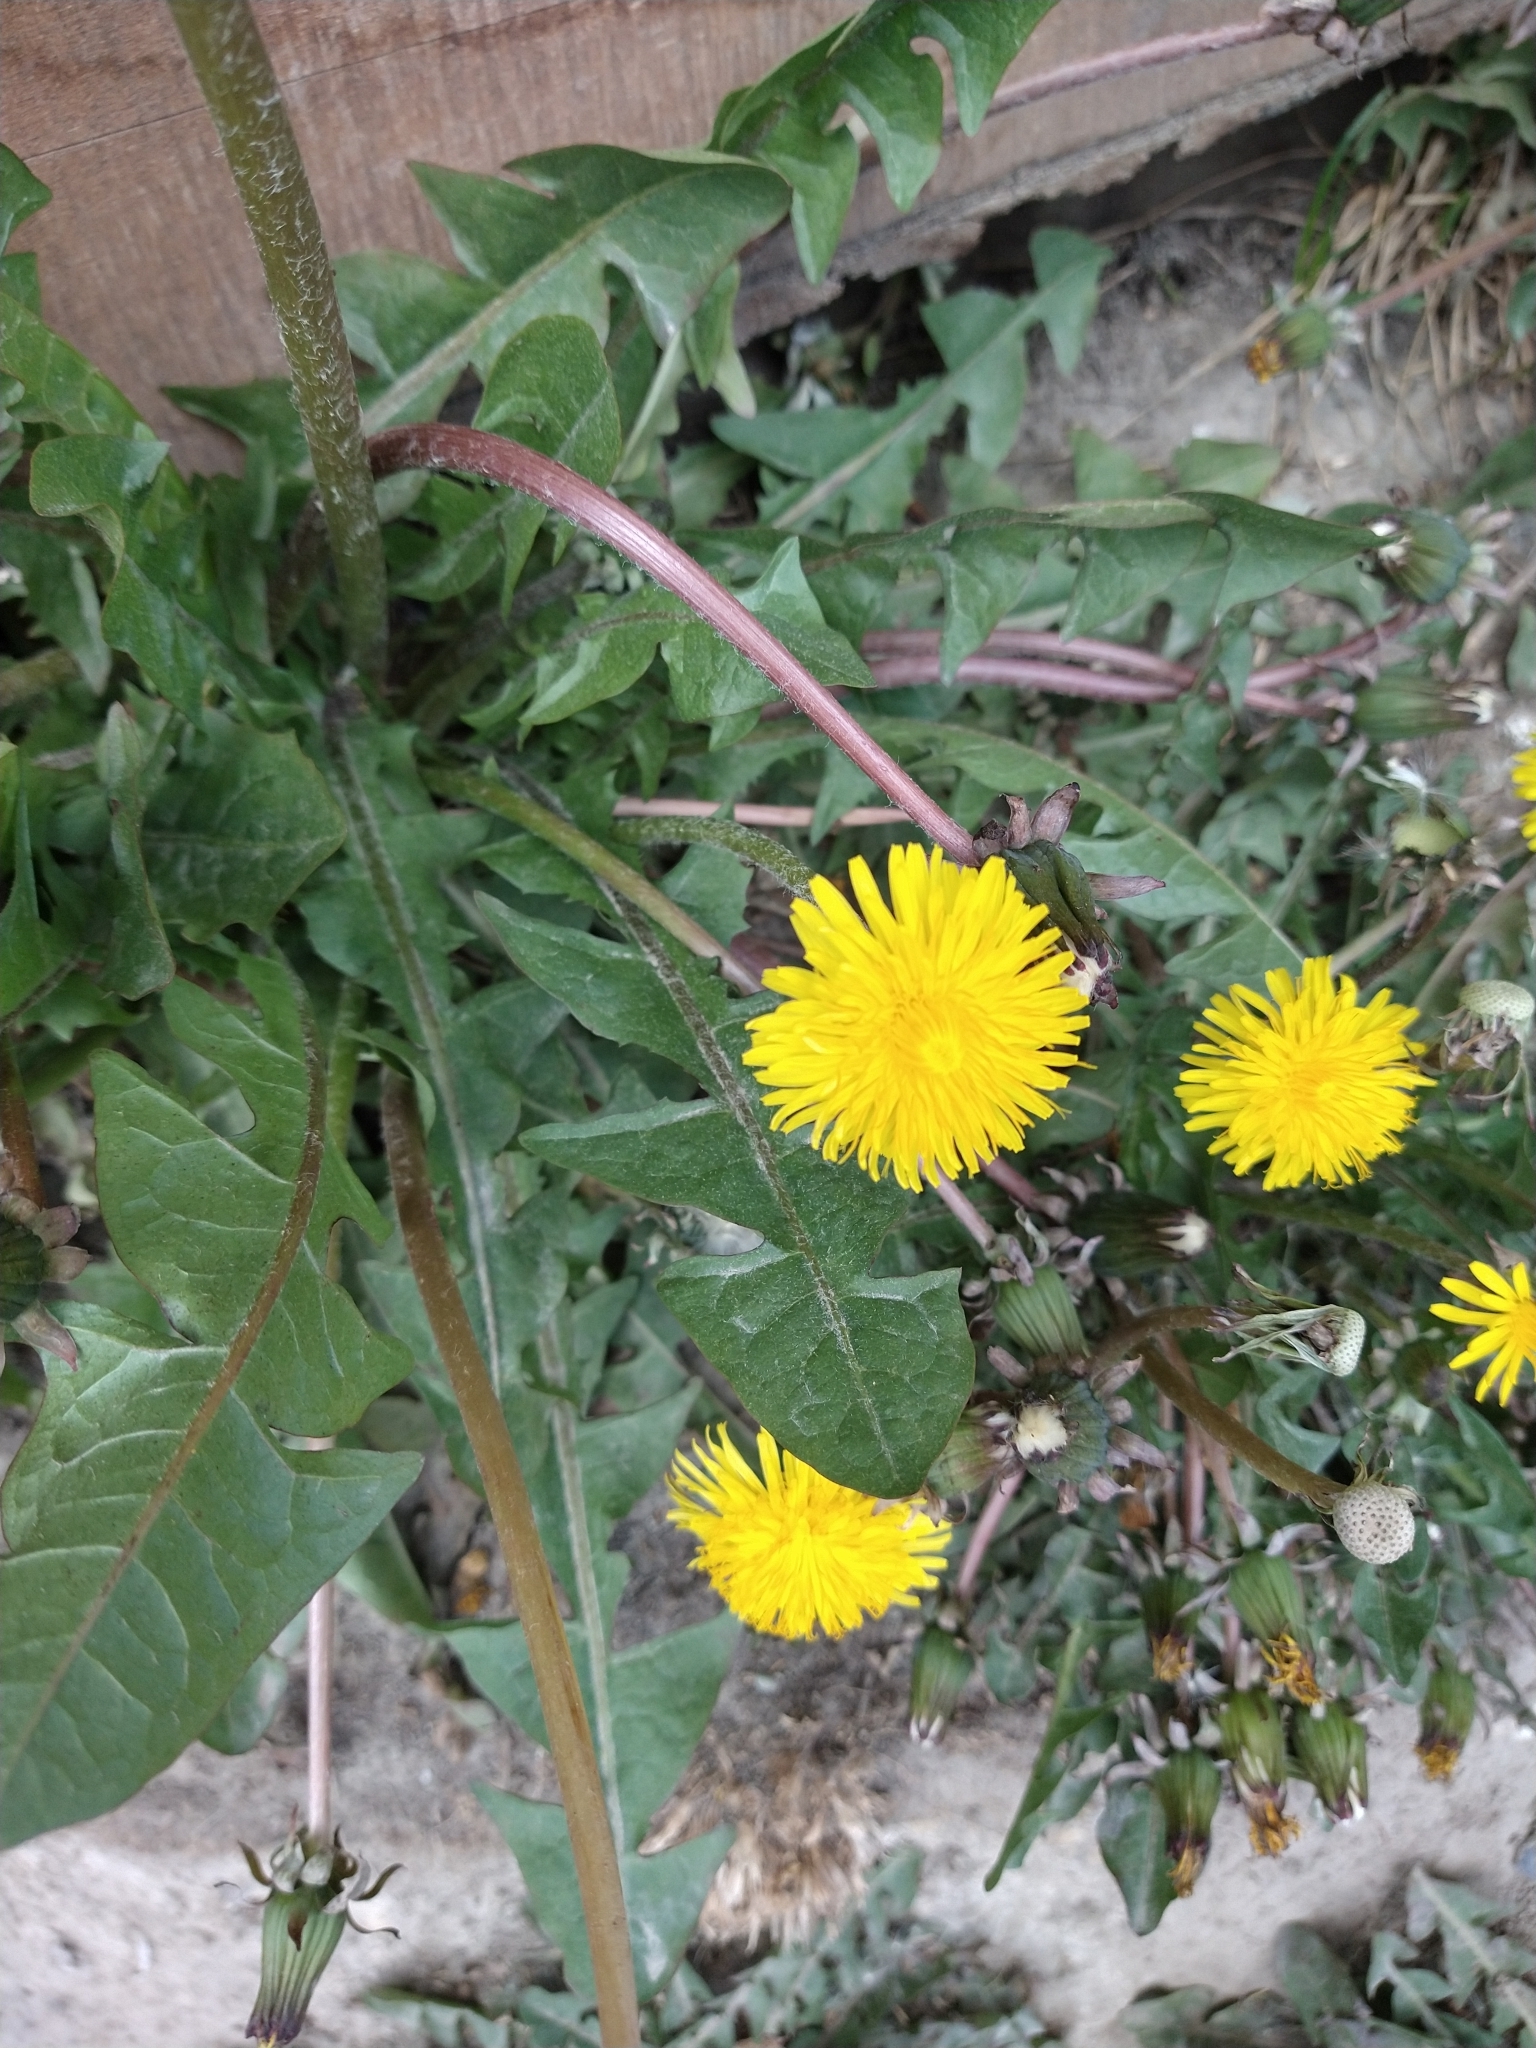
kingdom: Plantae
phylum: Tracheophyta
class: Magnoliopsida
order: Asterales
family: Asteraceae
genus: Taraxacum
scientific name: Taraxacum officinale
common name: Common dandelion
